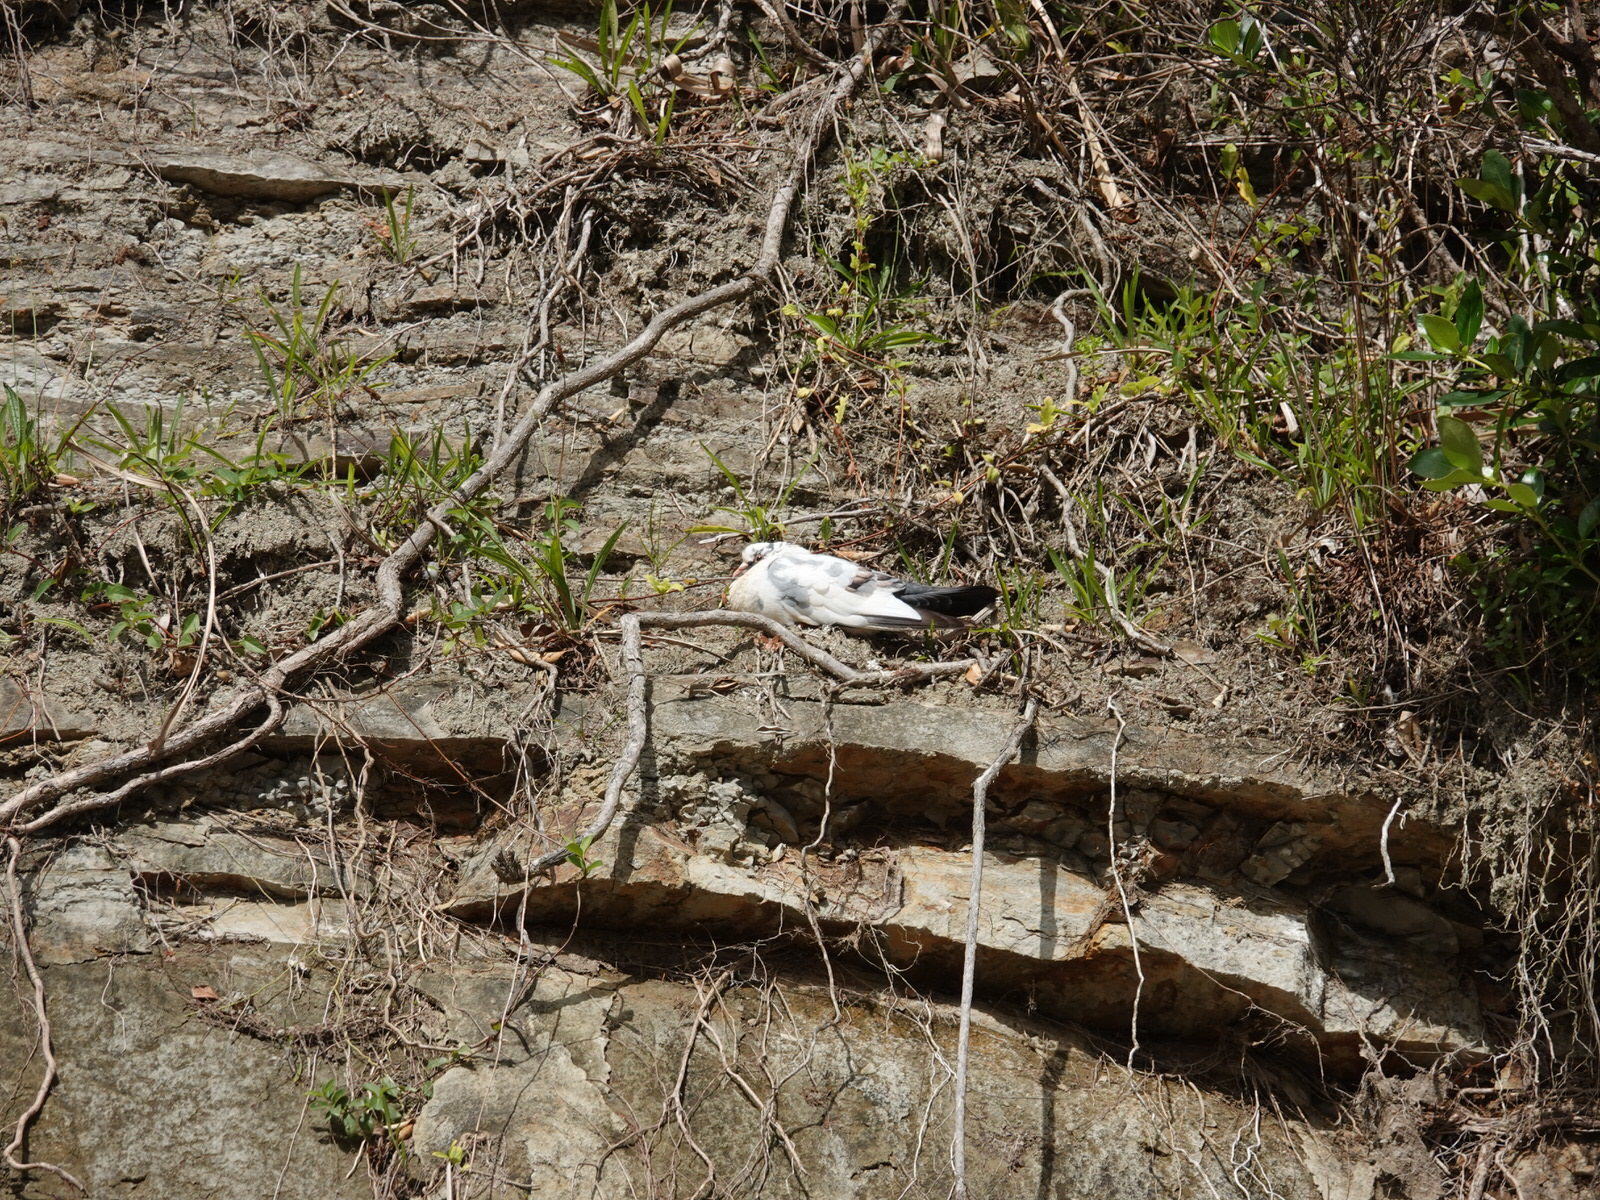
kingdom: Animalia
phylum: Chordata
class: Aves
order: Columbiformes
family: Columbidae
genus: Columba
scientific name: Columba livia
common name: Rock pigeon
